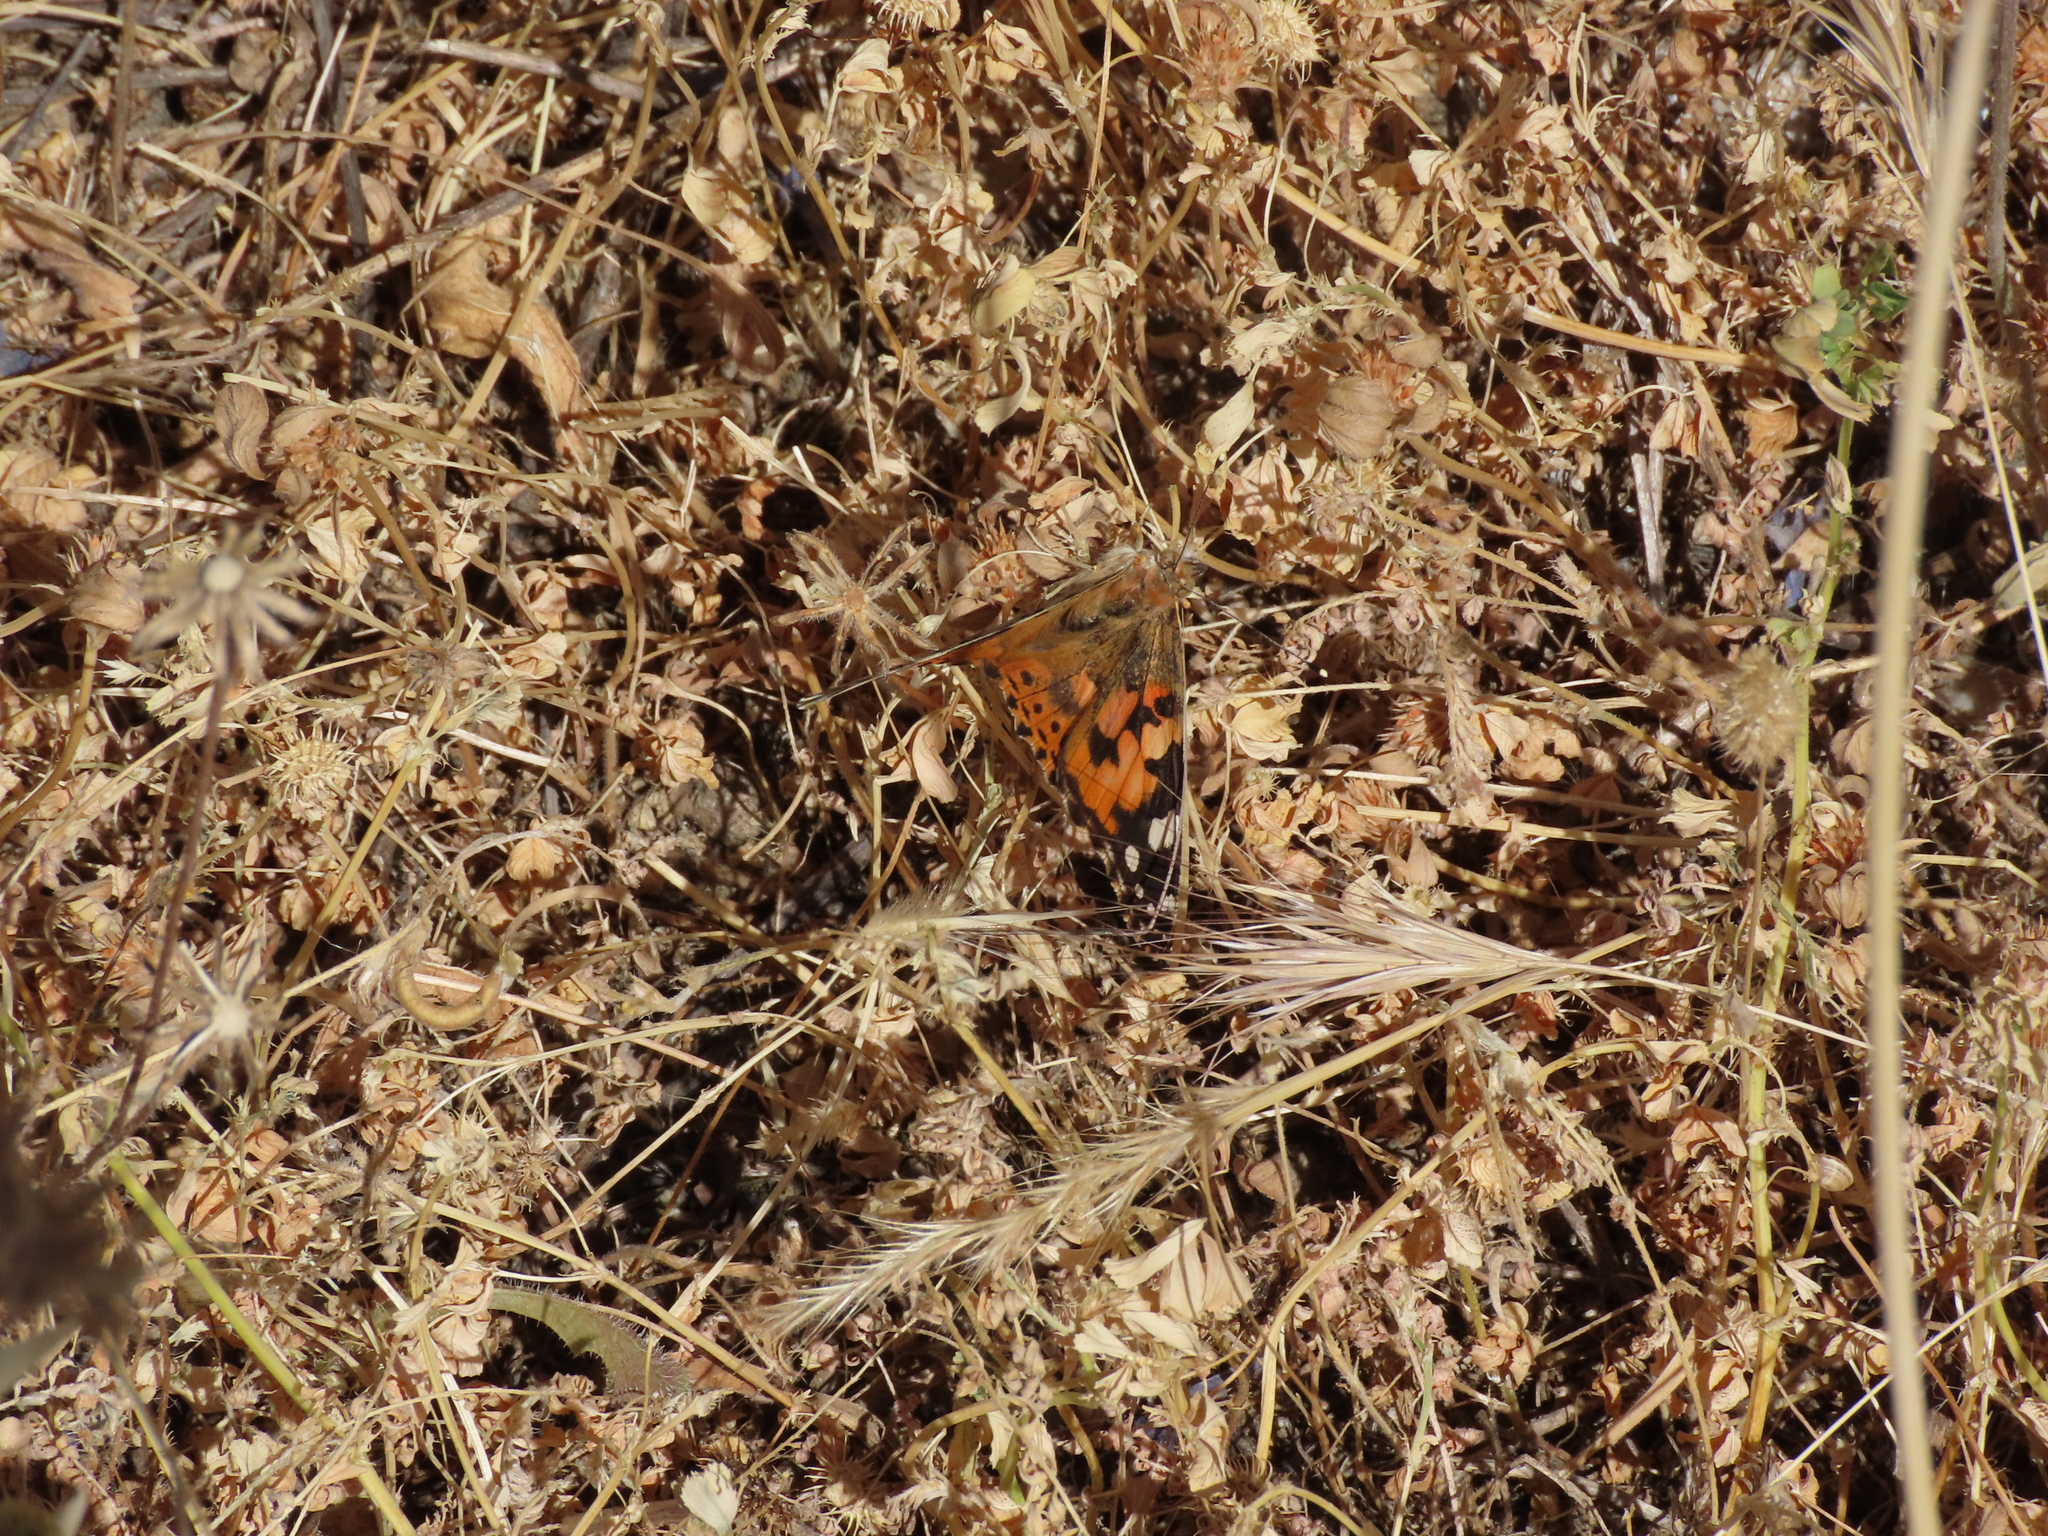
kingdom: Animalia
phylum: Arthropoda
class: Insecta
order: Lepidoptera
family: Nymphalidae
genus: Vanessa
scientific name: Vanessa cardui
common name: Painted lady
